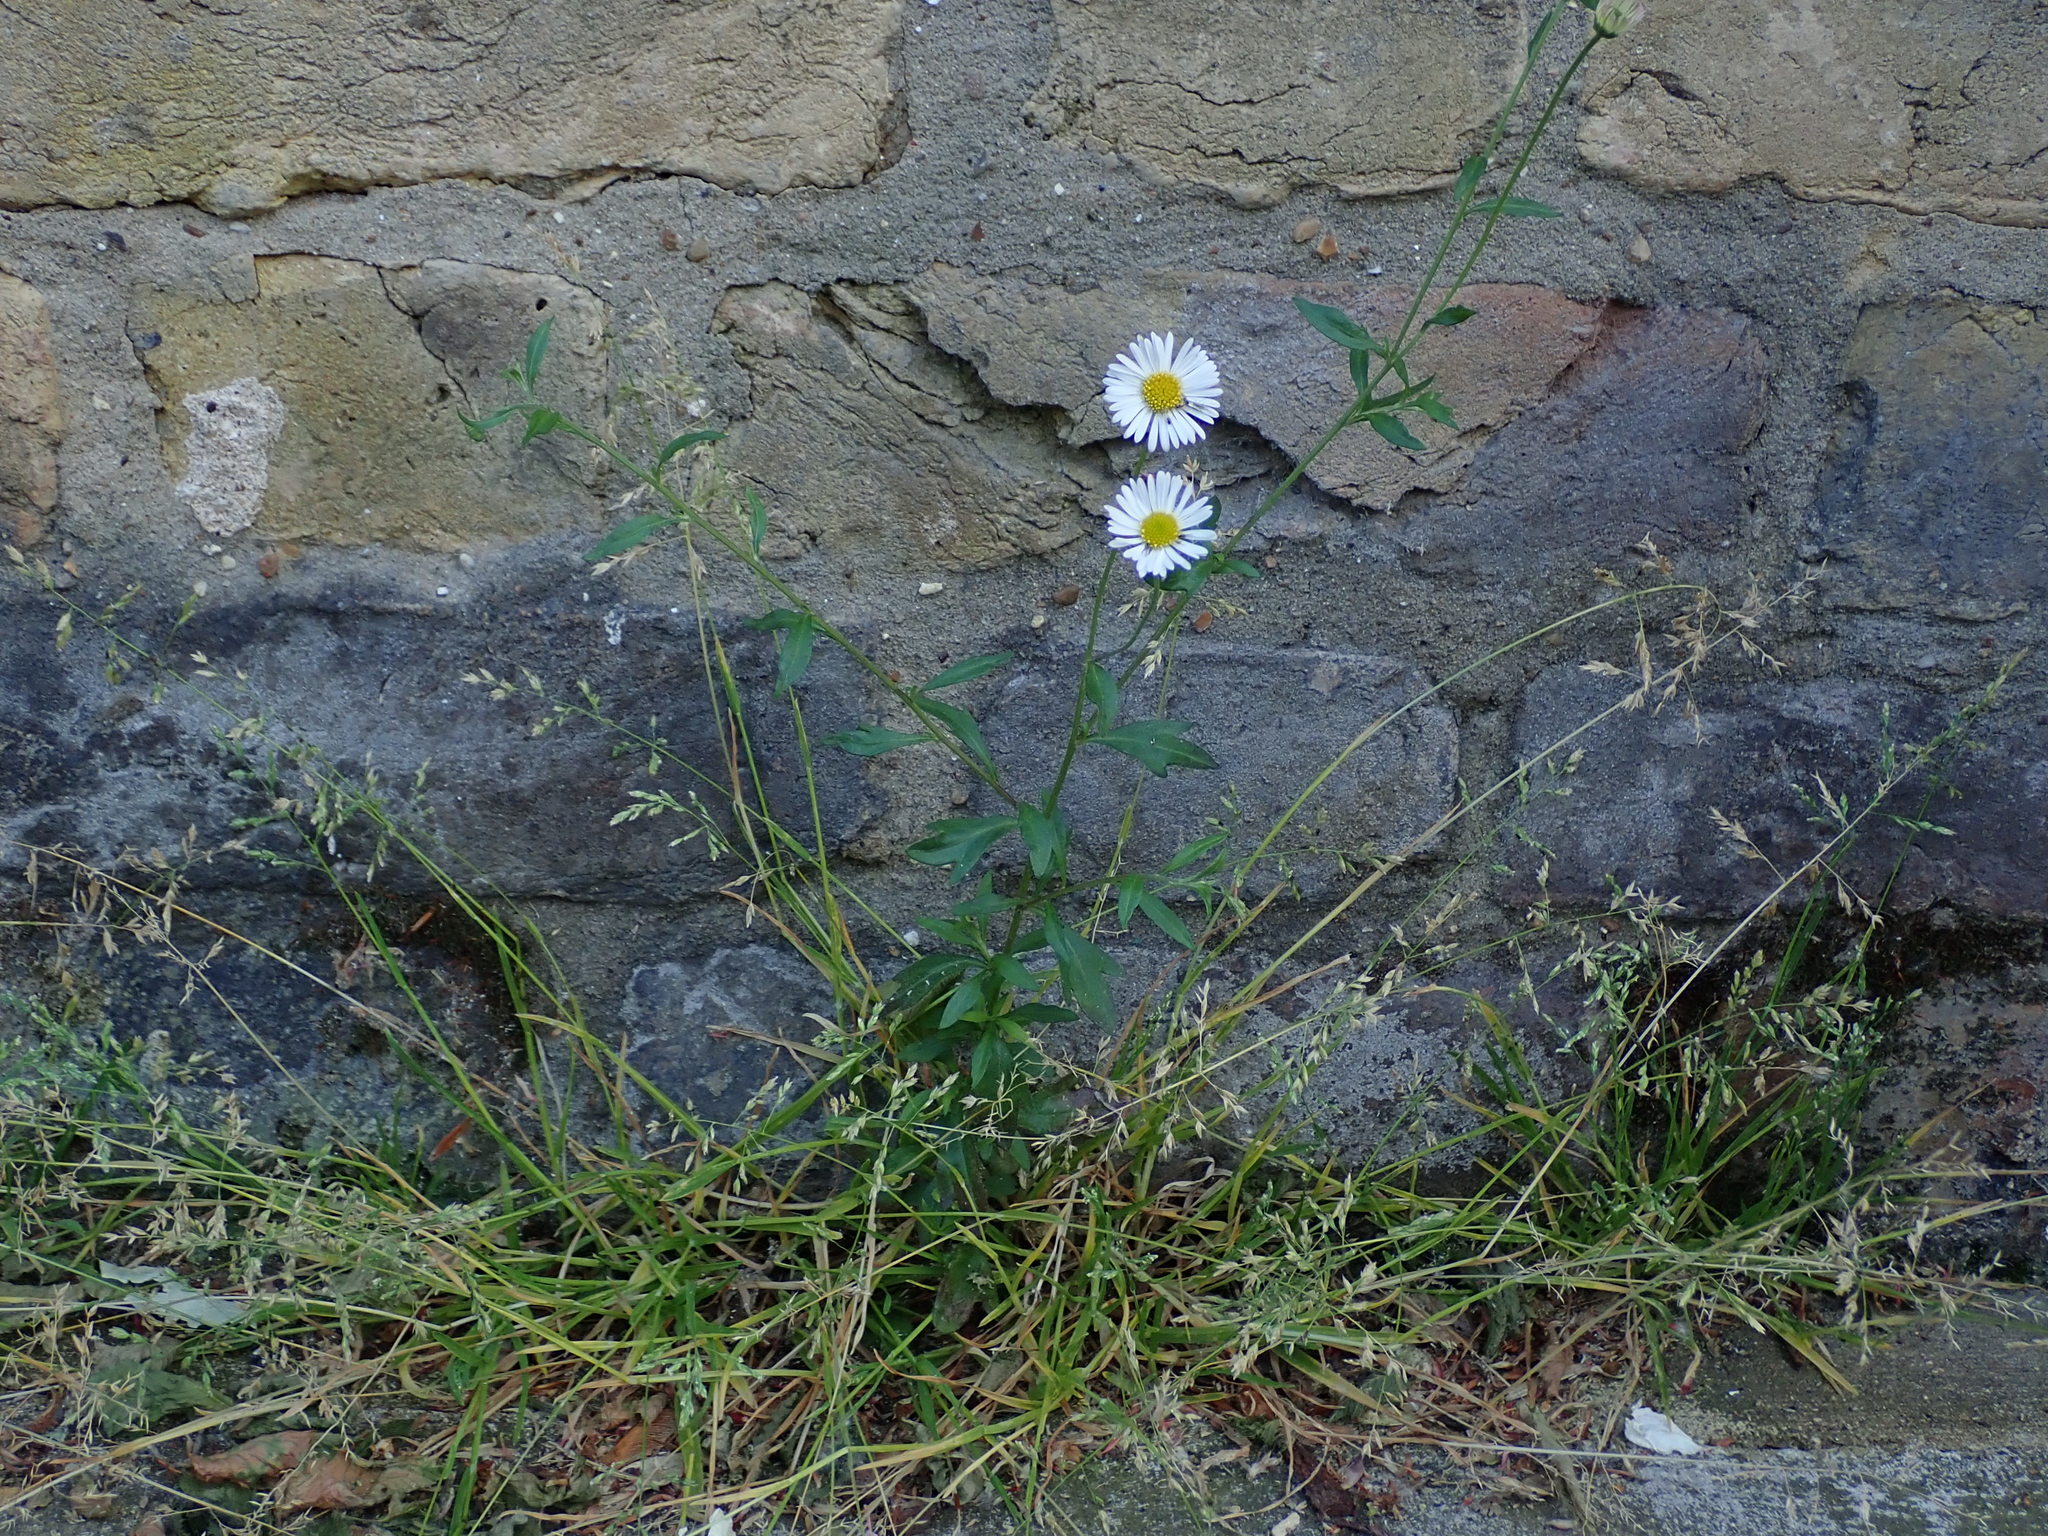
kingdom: Plantae
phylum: Tracheophyta
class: Magnoliopsida
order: Asterales
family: Asteraceae
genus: Erigeron
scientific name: Erigeron karvinskianus
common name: Mexican fleabane
